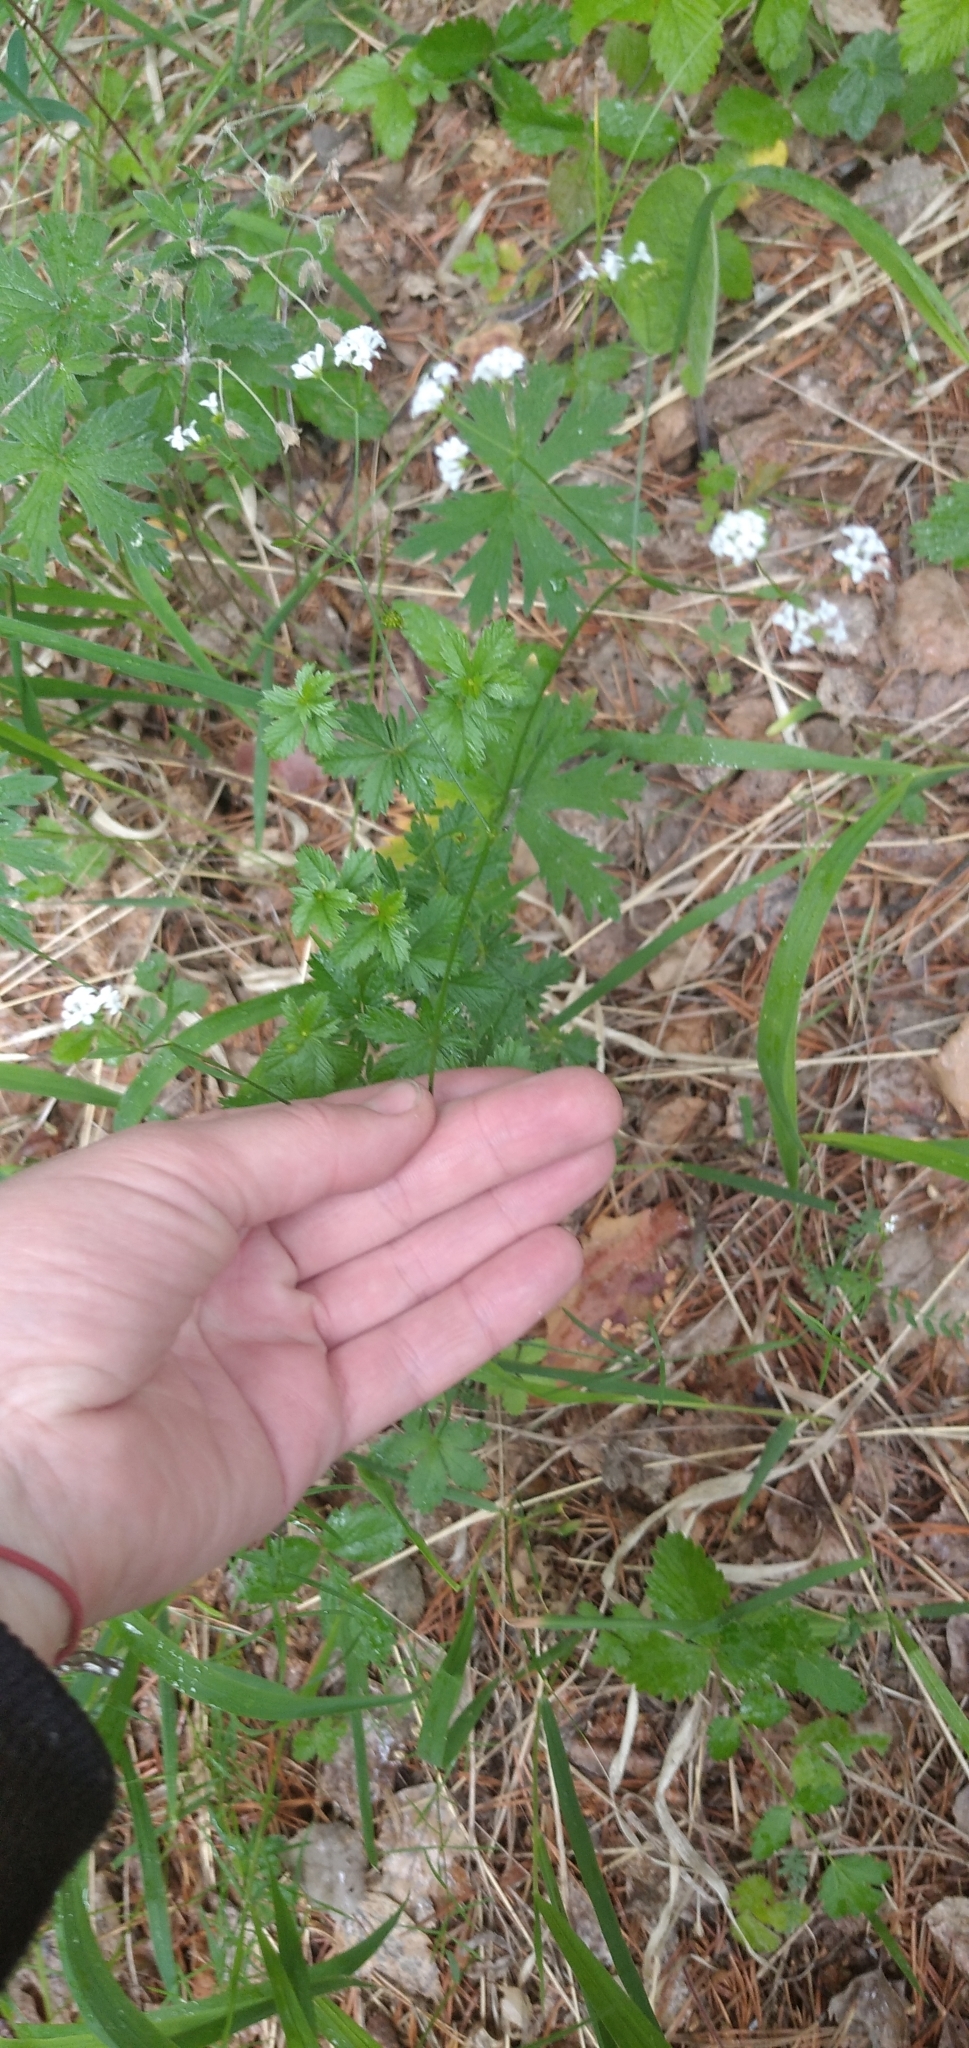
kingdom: Plantae
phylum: Tracheophyta
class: Magnoliopsida
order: Gentianales
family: Rubiaceae
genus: Asperula
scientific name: Asperula tinctoria
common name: Dyer's woodruff
